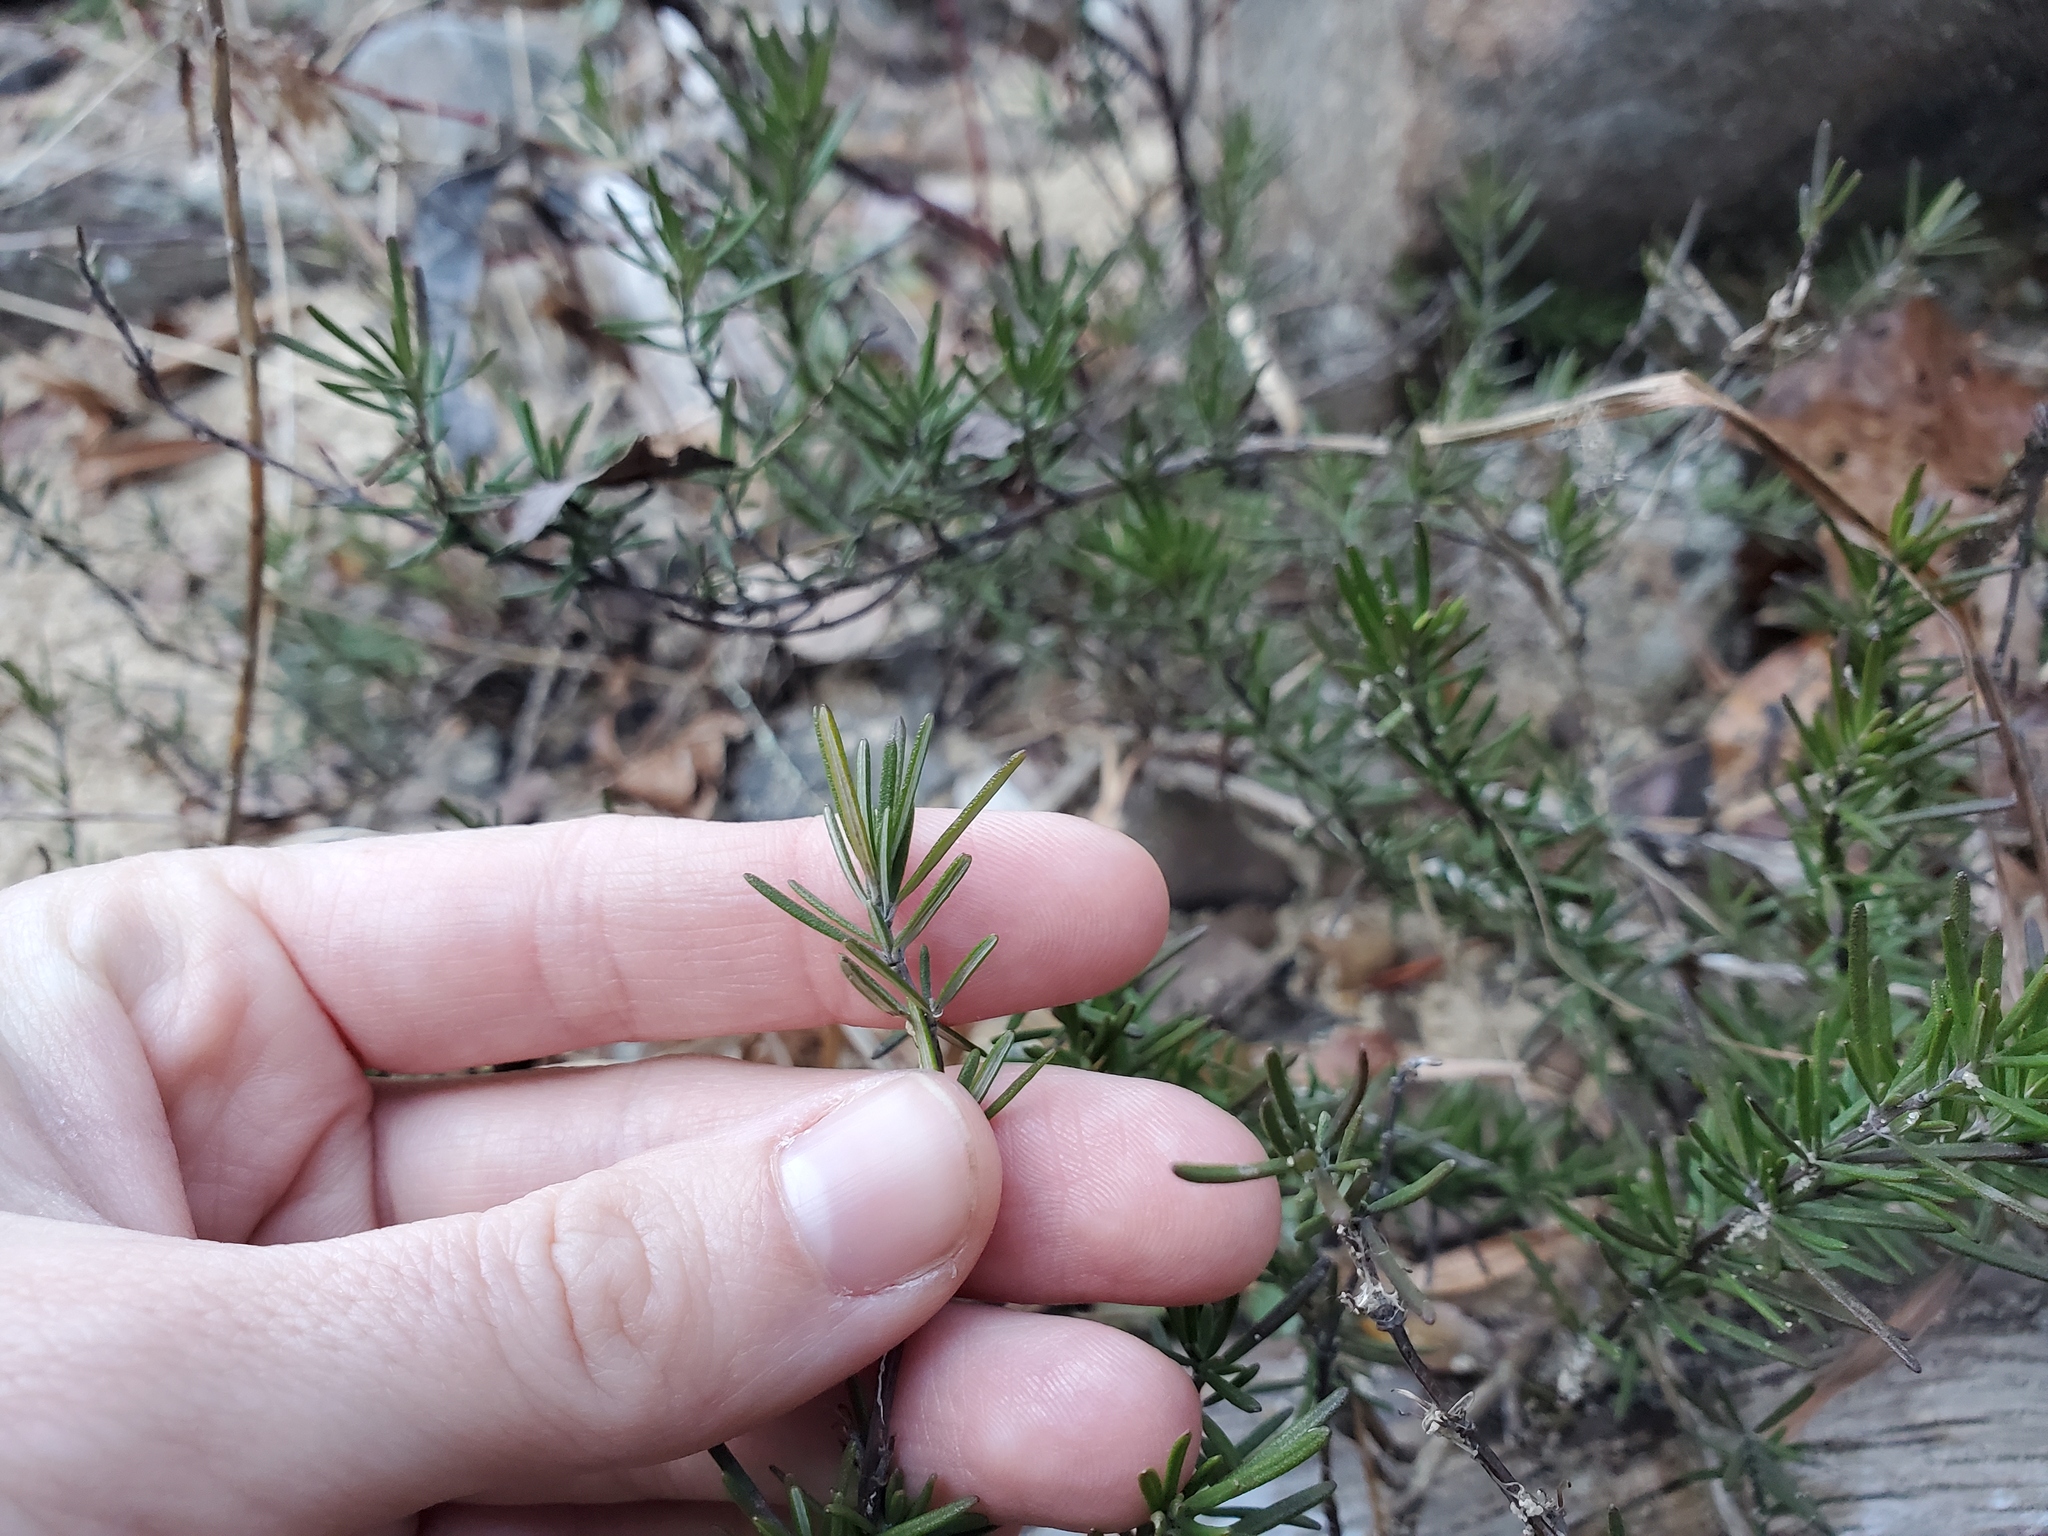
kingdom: Plantae
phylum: Tracheophyta
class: Magnoliopsida
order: Lamiales
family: Lamiaceae
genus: Conradina
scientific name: Conradina verticillata
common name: Cumberland-rosemary
